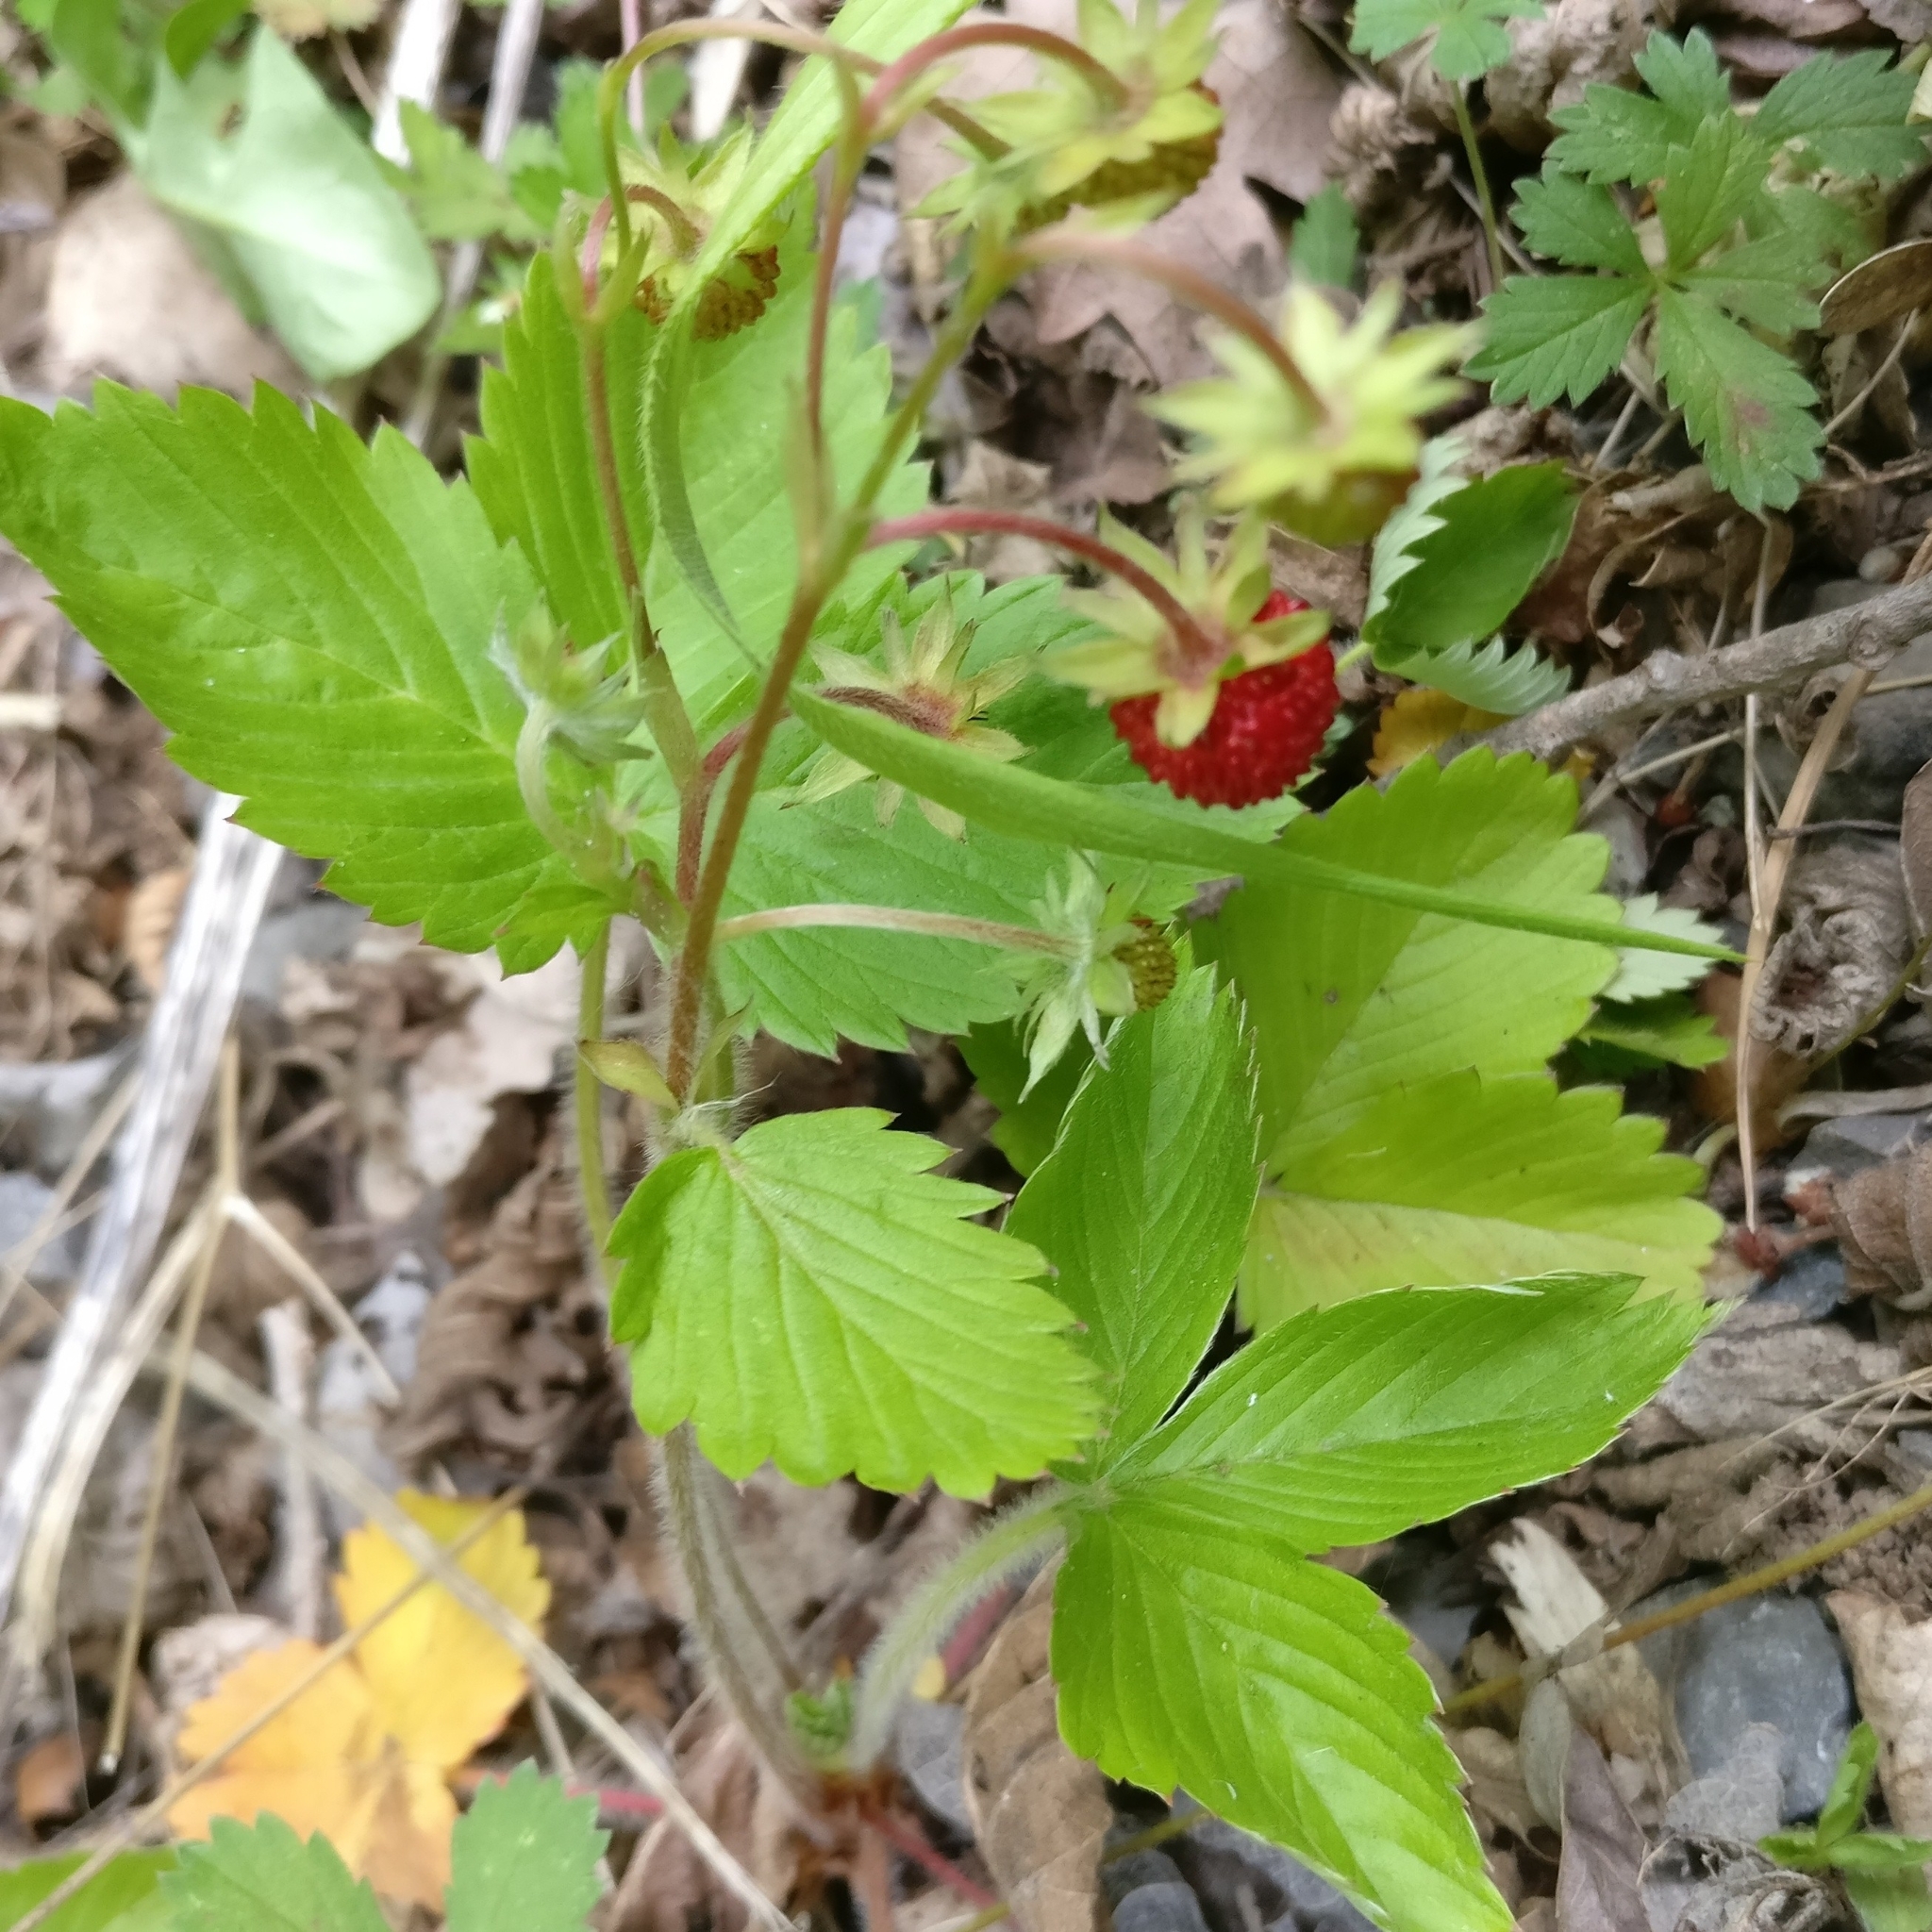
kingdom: Plantae
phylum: Tracheophyta
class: Magnoliopsida
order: Rosales
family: Rosaceae
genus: Fragaria
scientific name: Fragaria vesca
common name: Wild strawberry
